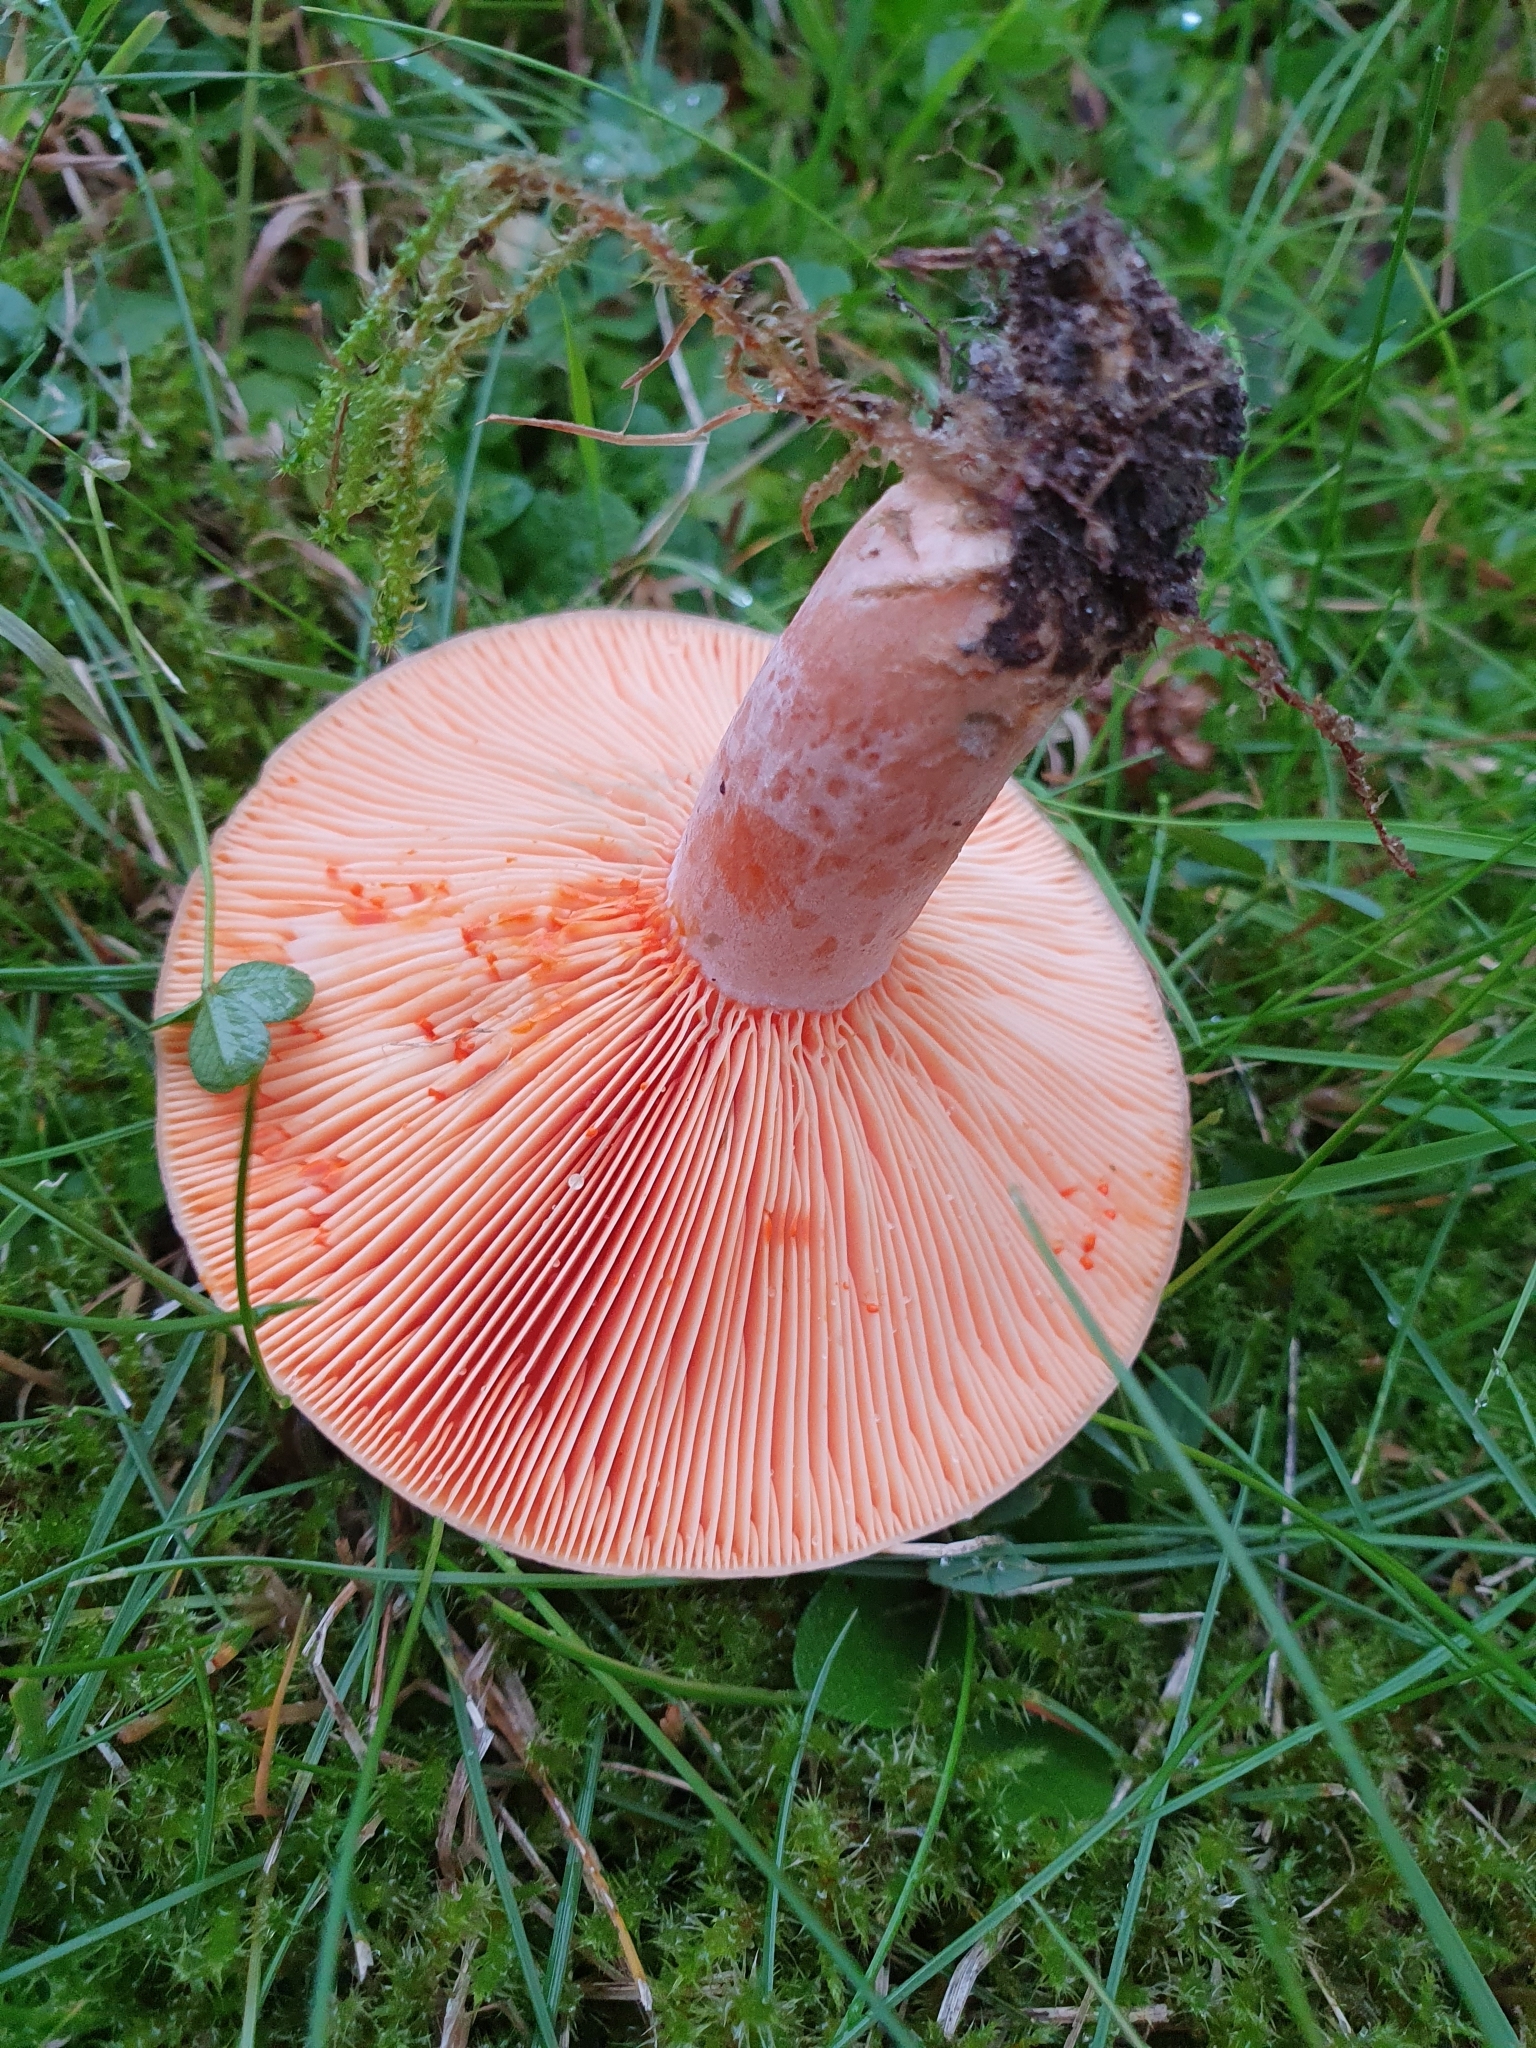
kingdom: Fungi
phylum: Basidiomycota
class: Agaricomycetes
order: Russulales
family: Russulaceae
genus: Lactarius
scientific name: Lactarius deliciosus
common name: Saffron milk-cap
